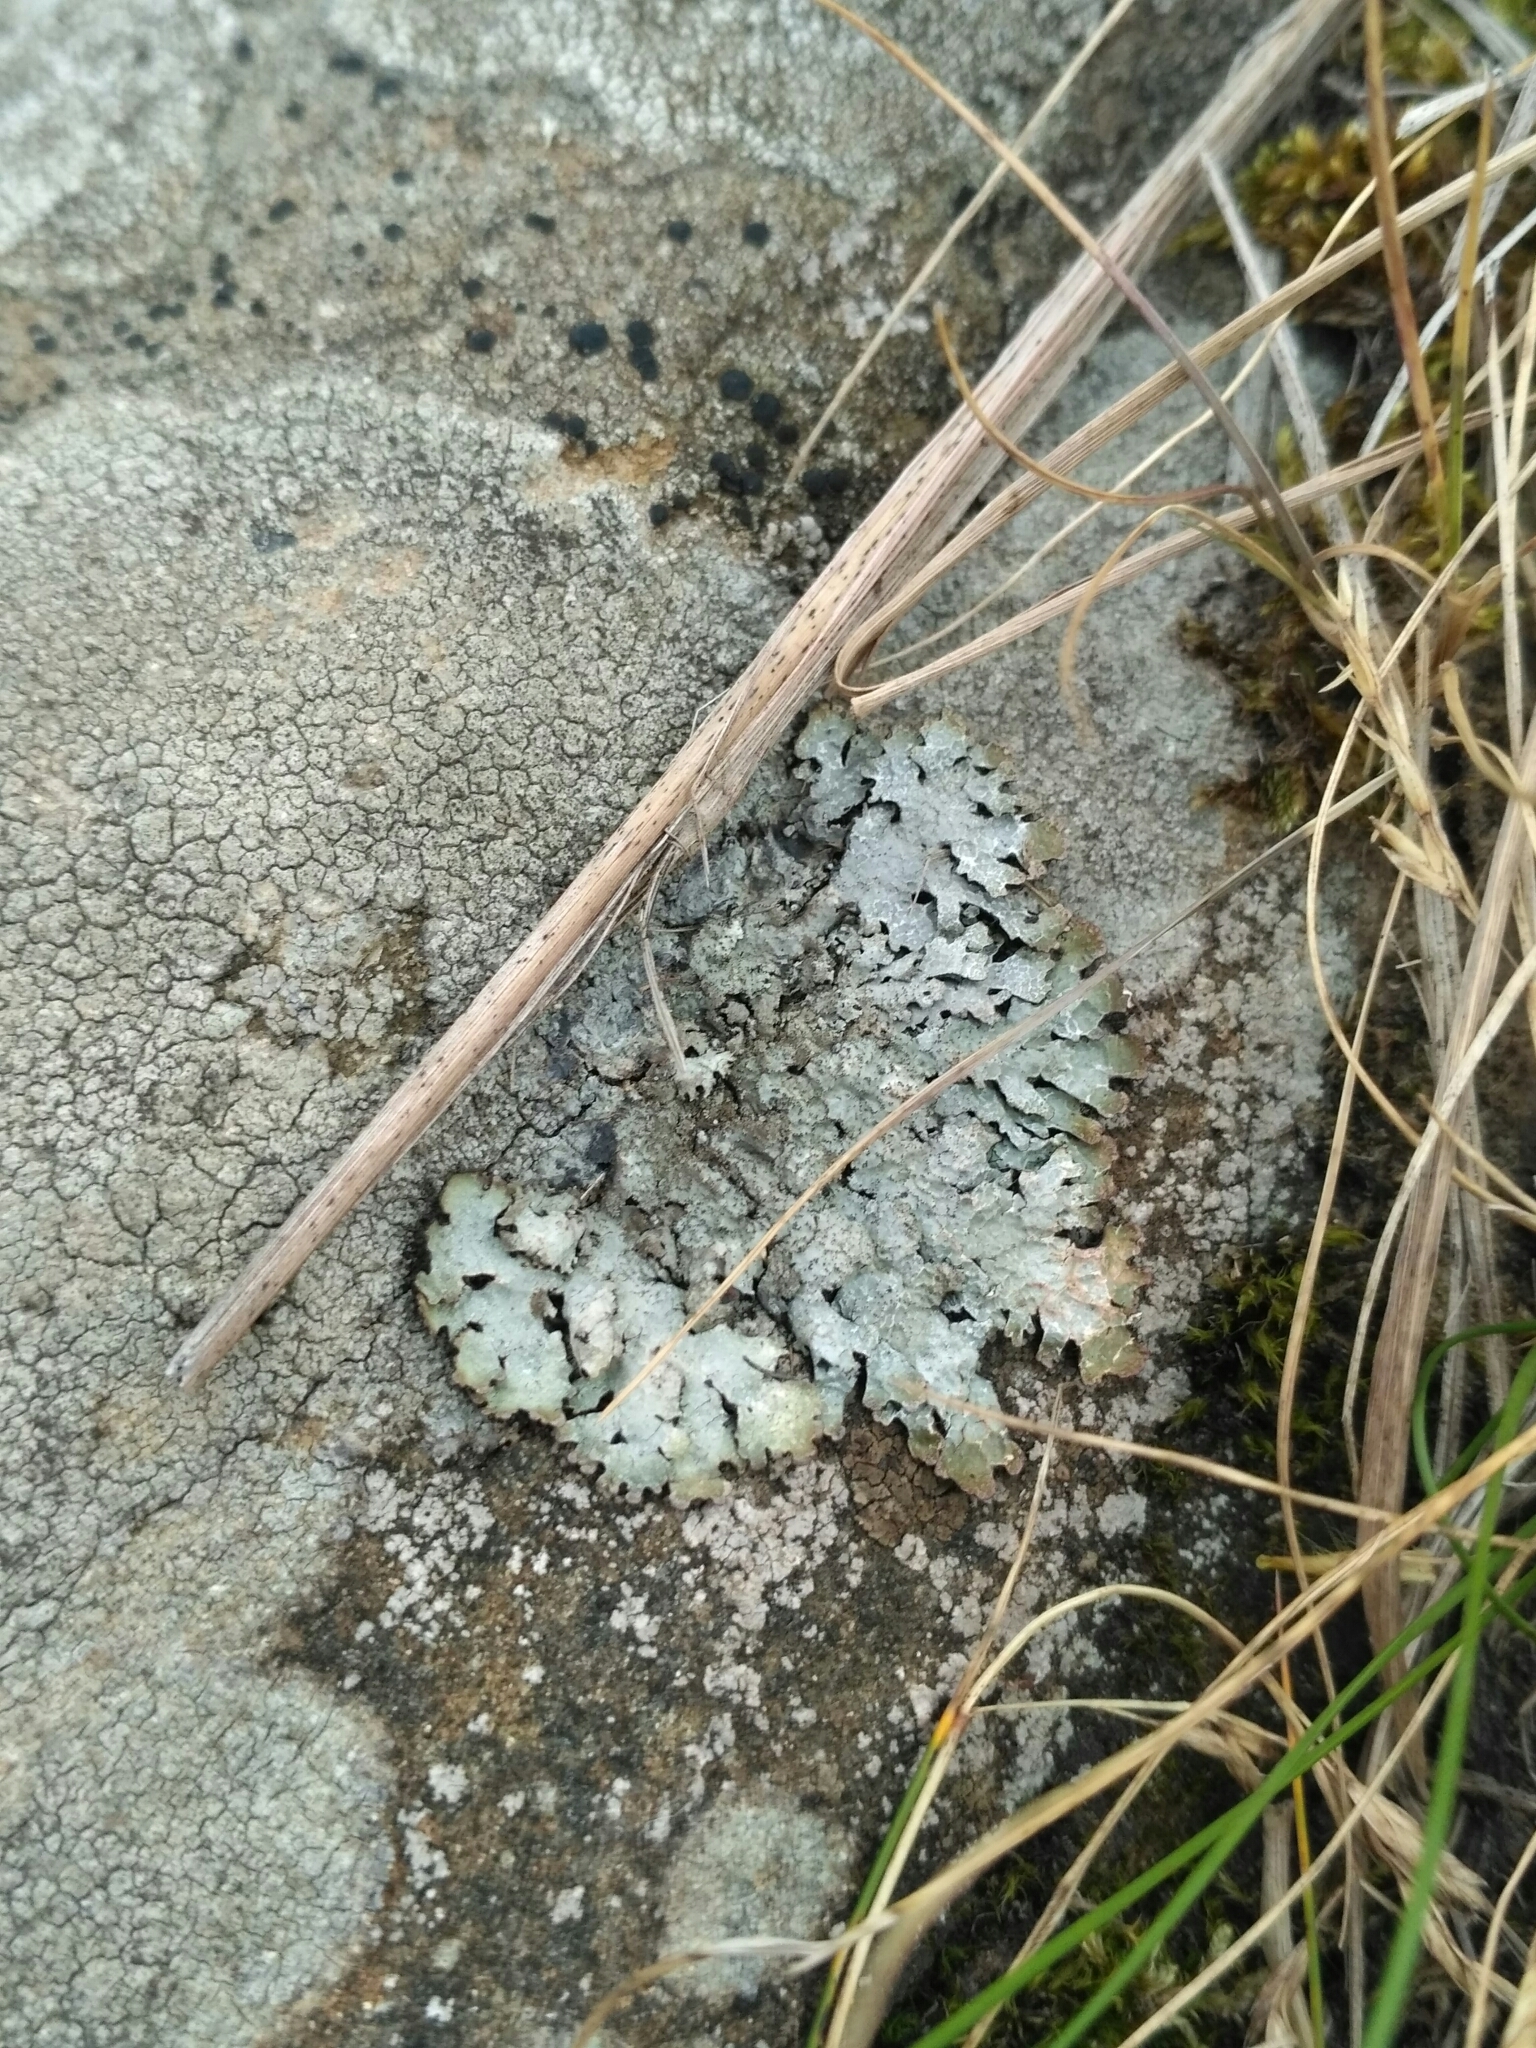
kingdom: Fungi
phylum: Ascomycota
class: Lecanoromycetes
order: Lecanorales
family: Parmeliaceae
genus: Parmelia
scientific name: Parmelia saxatilis
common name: Salted shield lichen
